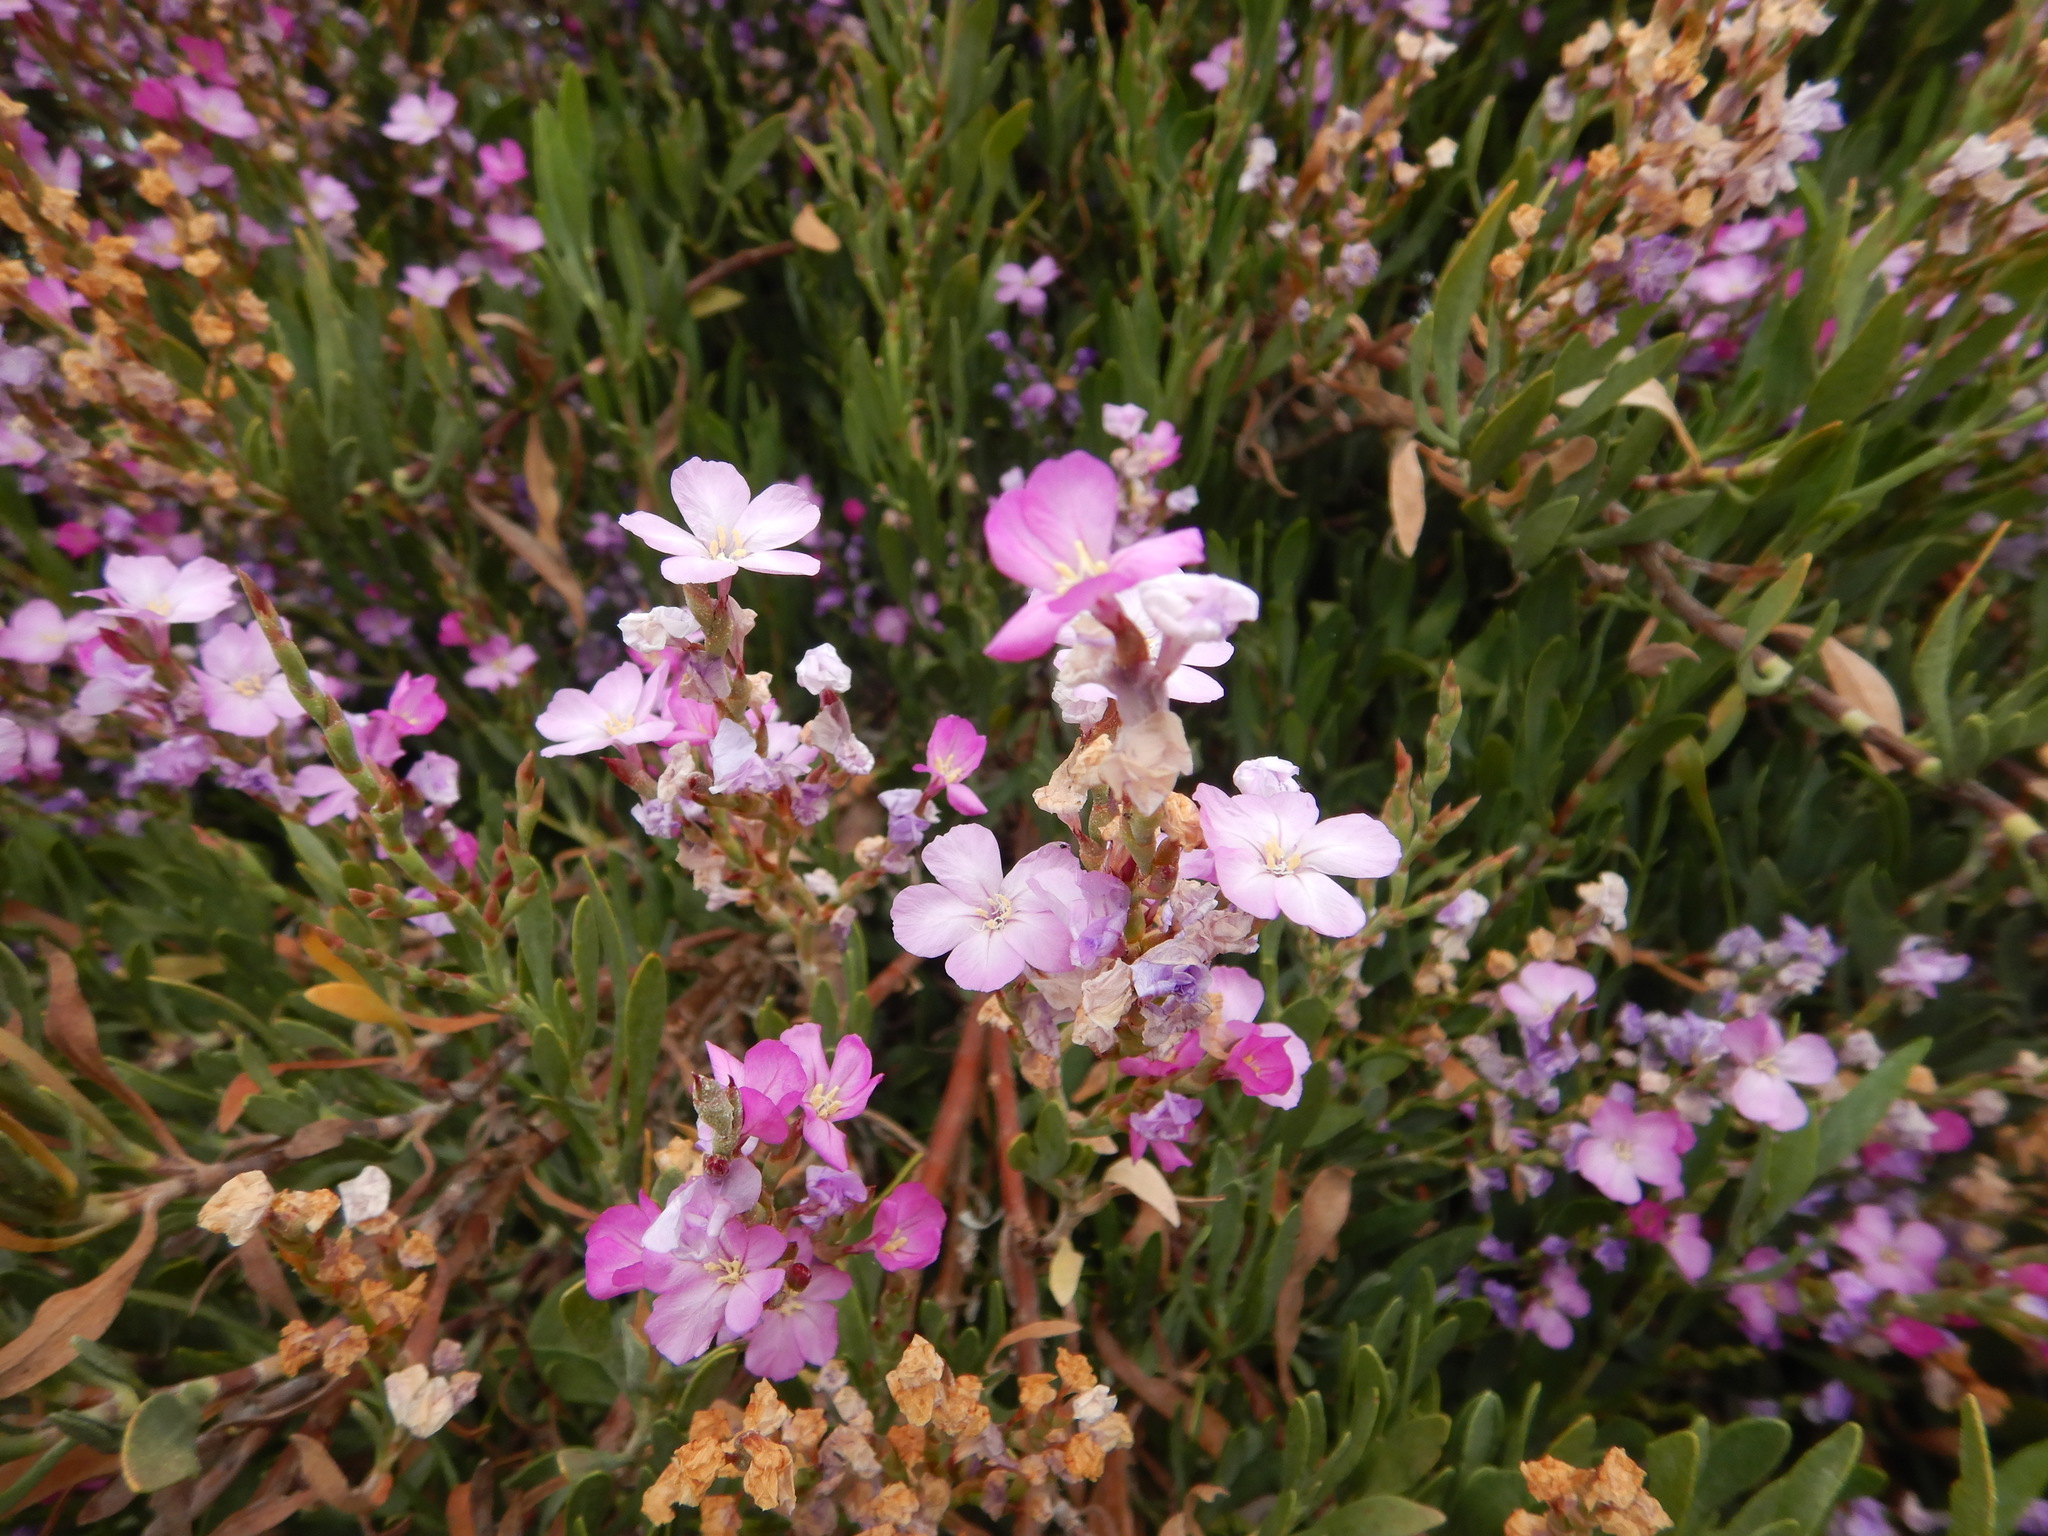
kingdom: Plantae
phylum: Tracheophyta
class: Magnoliopsida
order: Caryophyllales
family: Plumbaginaceae
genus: Limoniastrum
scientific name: Limoniastrum monopetalum
